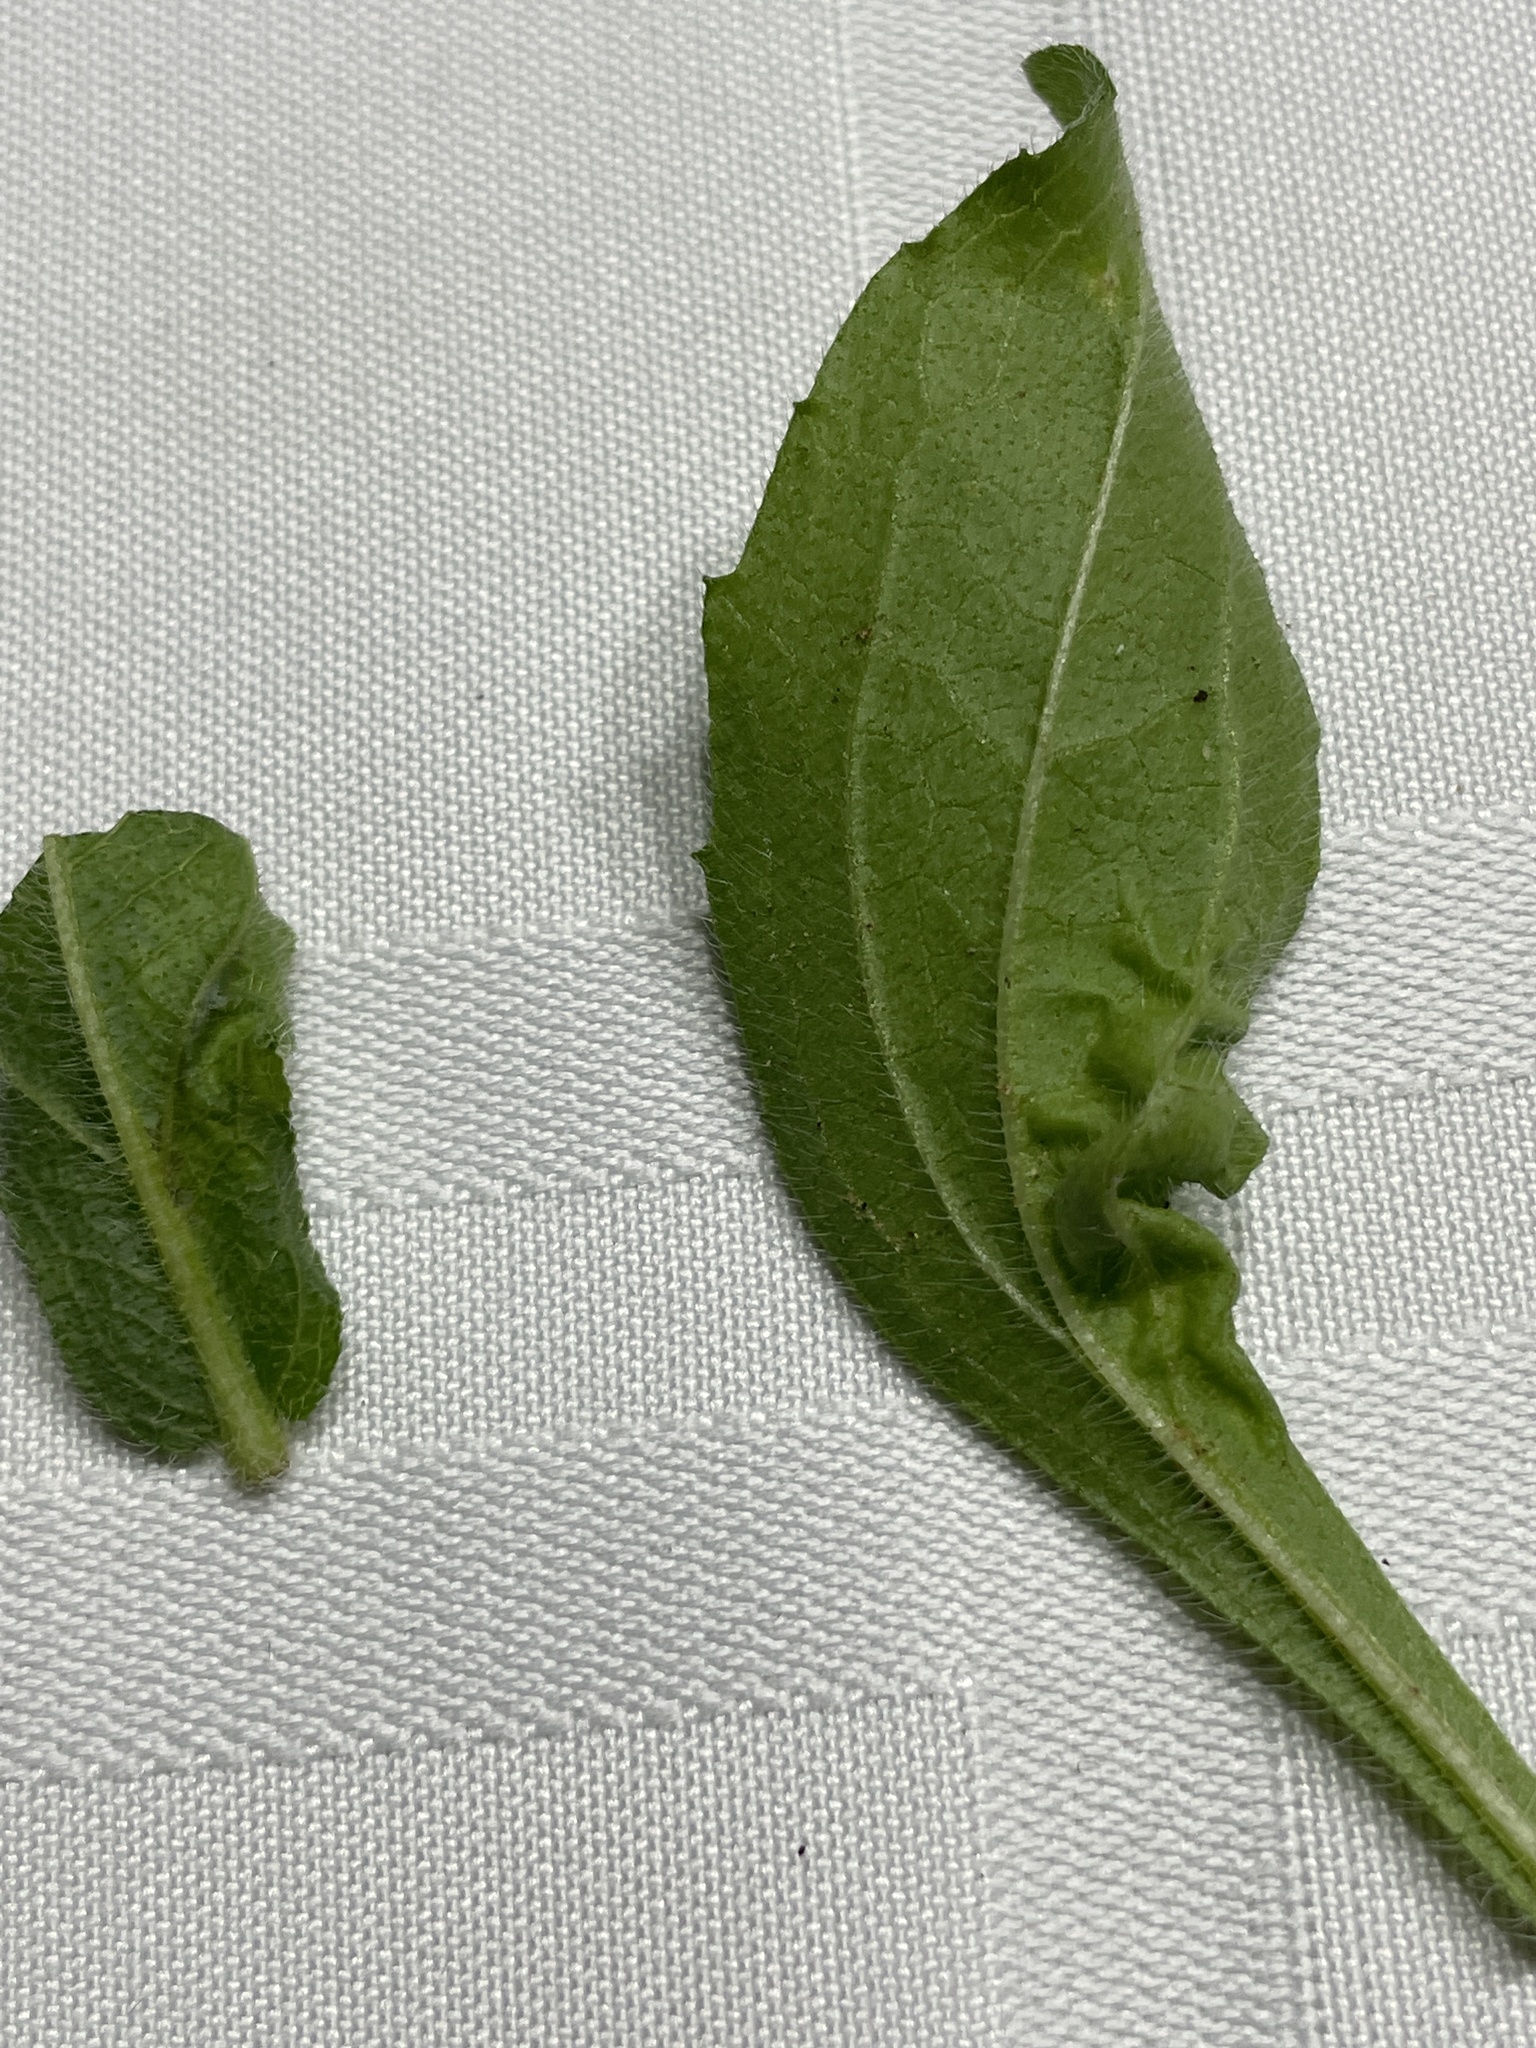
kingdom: Animalia
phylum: Arthropoda
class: Insecta
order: Diptera
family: Agromyzidae
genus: Calycomyza
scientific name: Calycomyza platyptera
